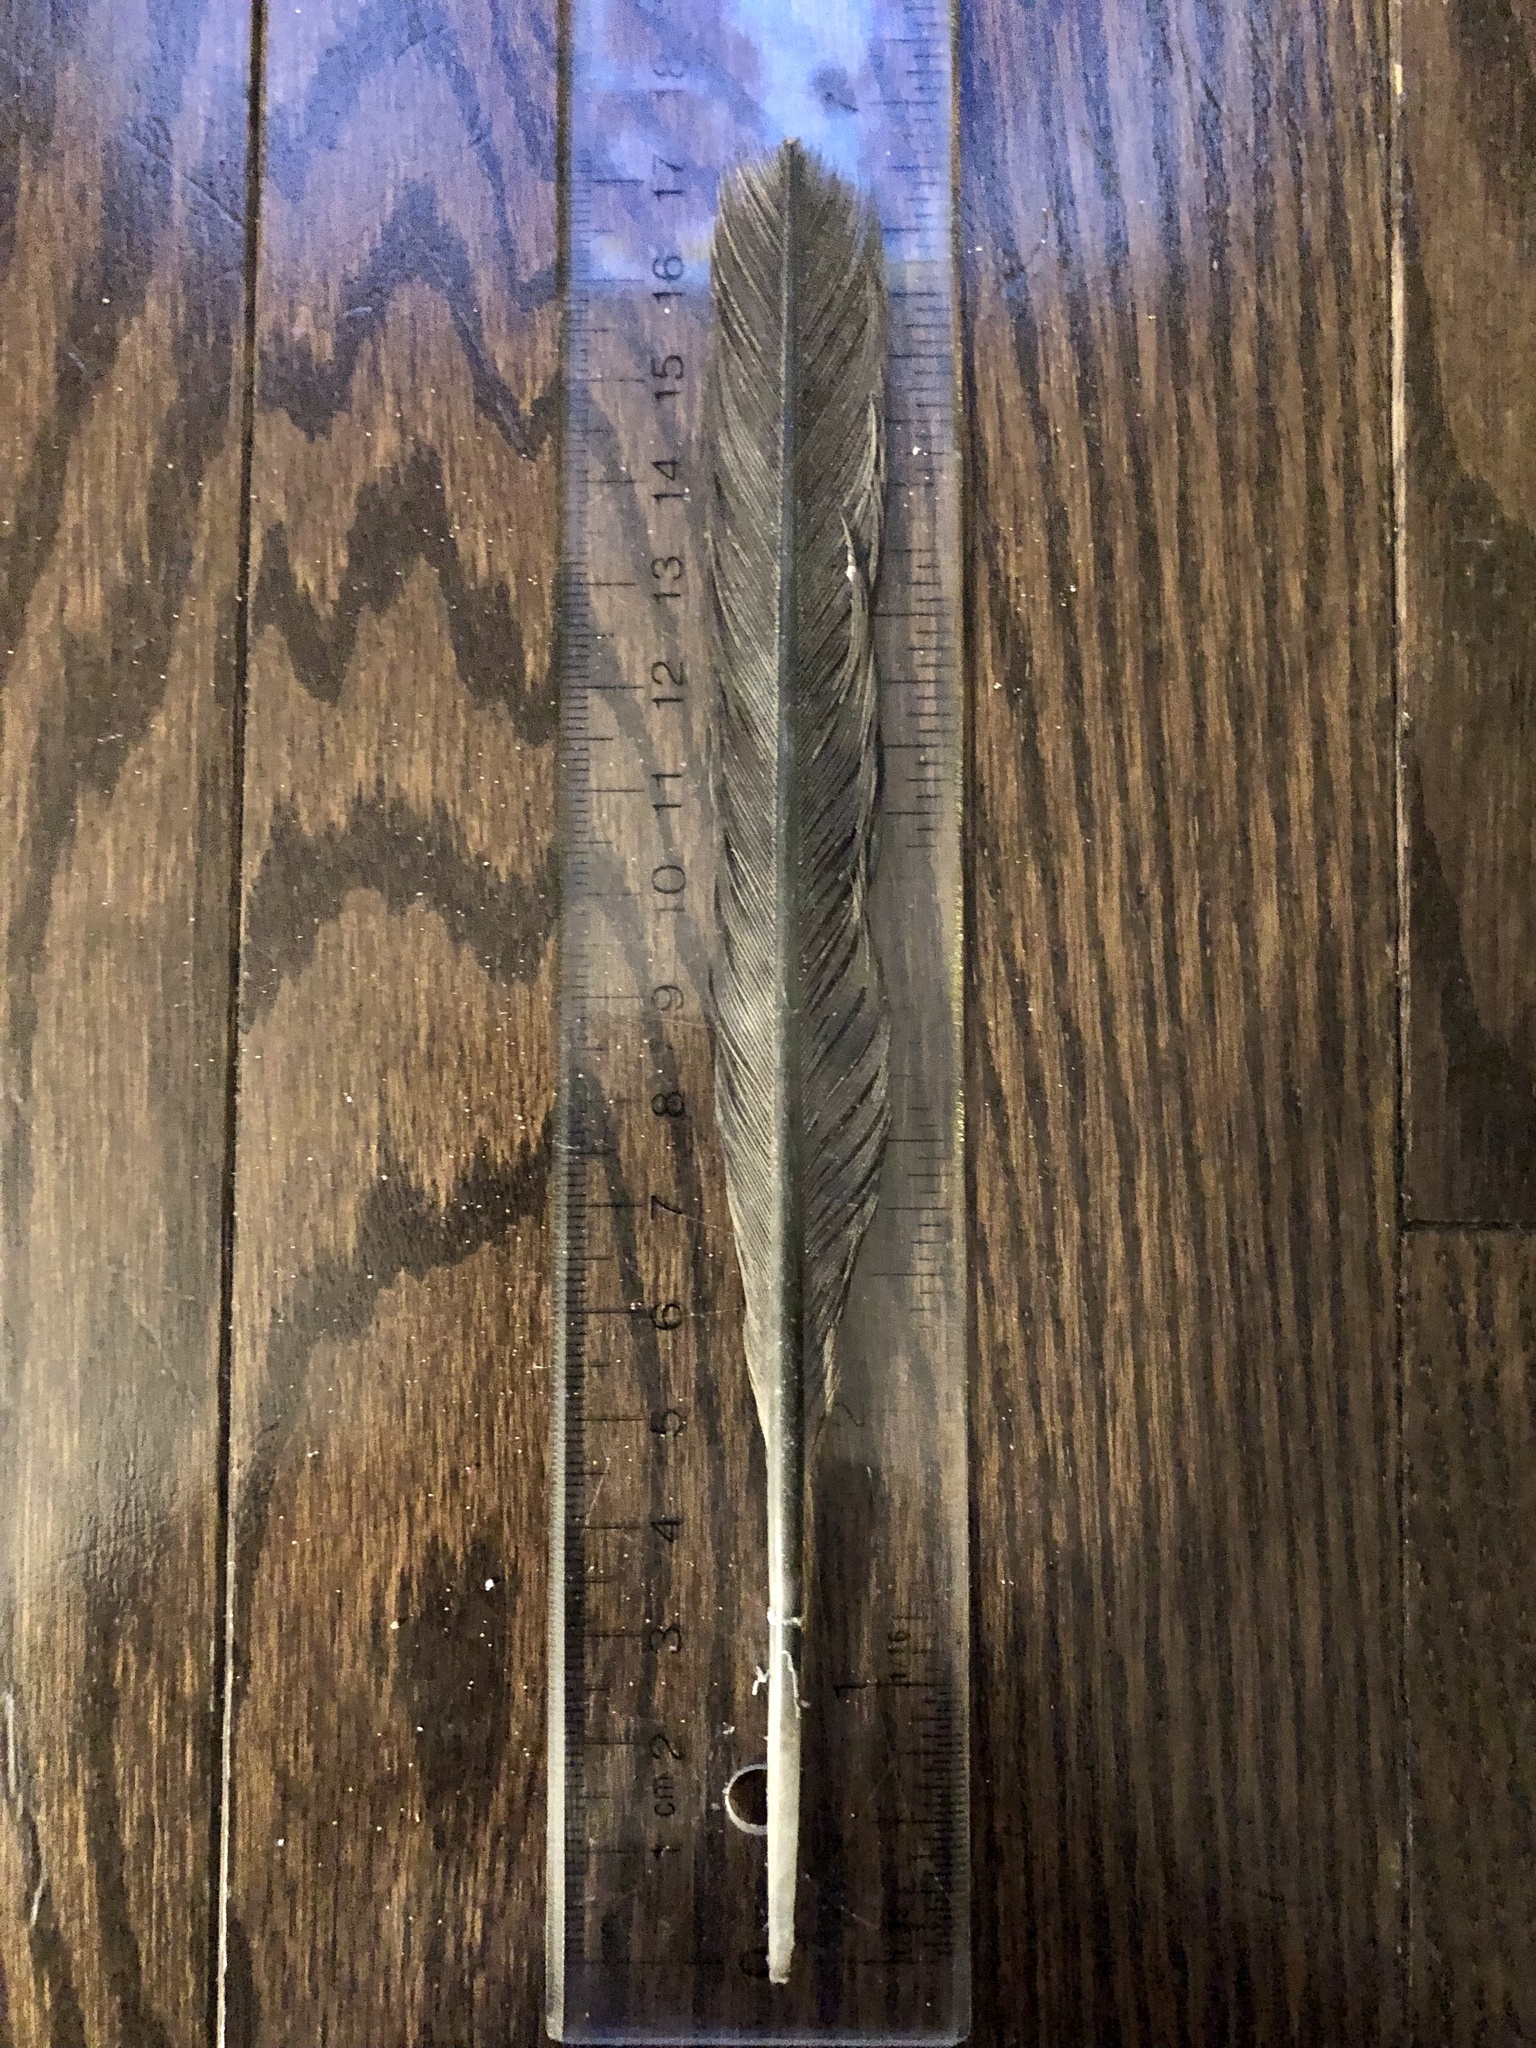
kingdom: Animalia
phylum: Chordata
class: Aves
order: Suliformes
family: Phalacrocoracidae
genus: Phalacrocorax
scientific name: Phalacrocorax auritus
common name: Double-crested cormorant
